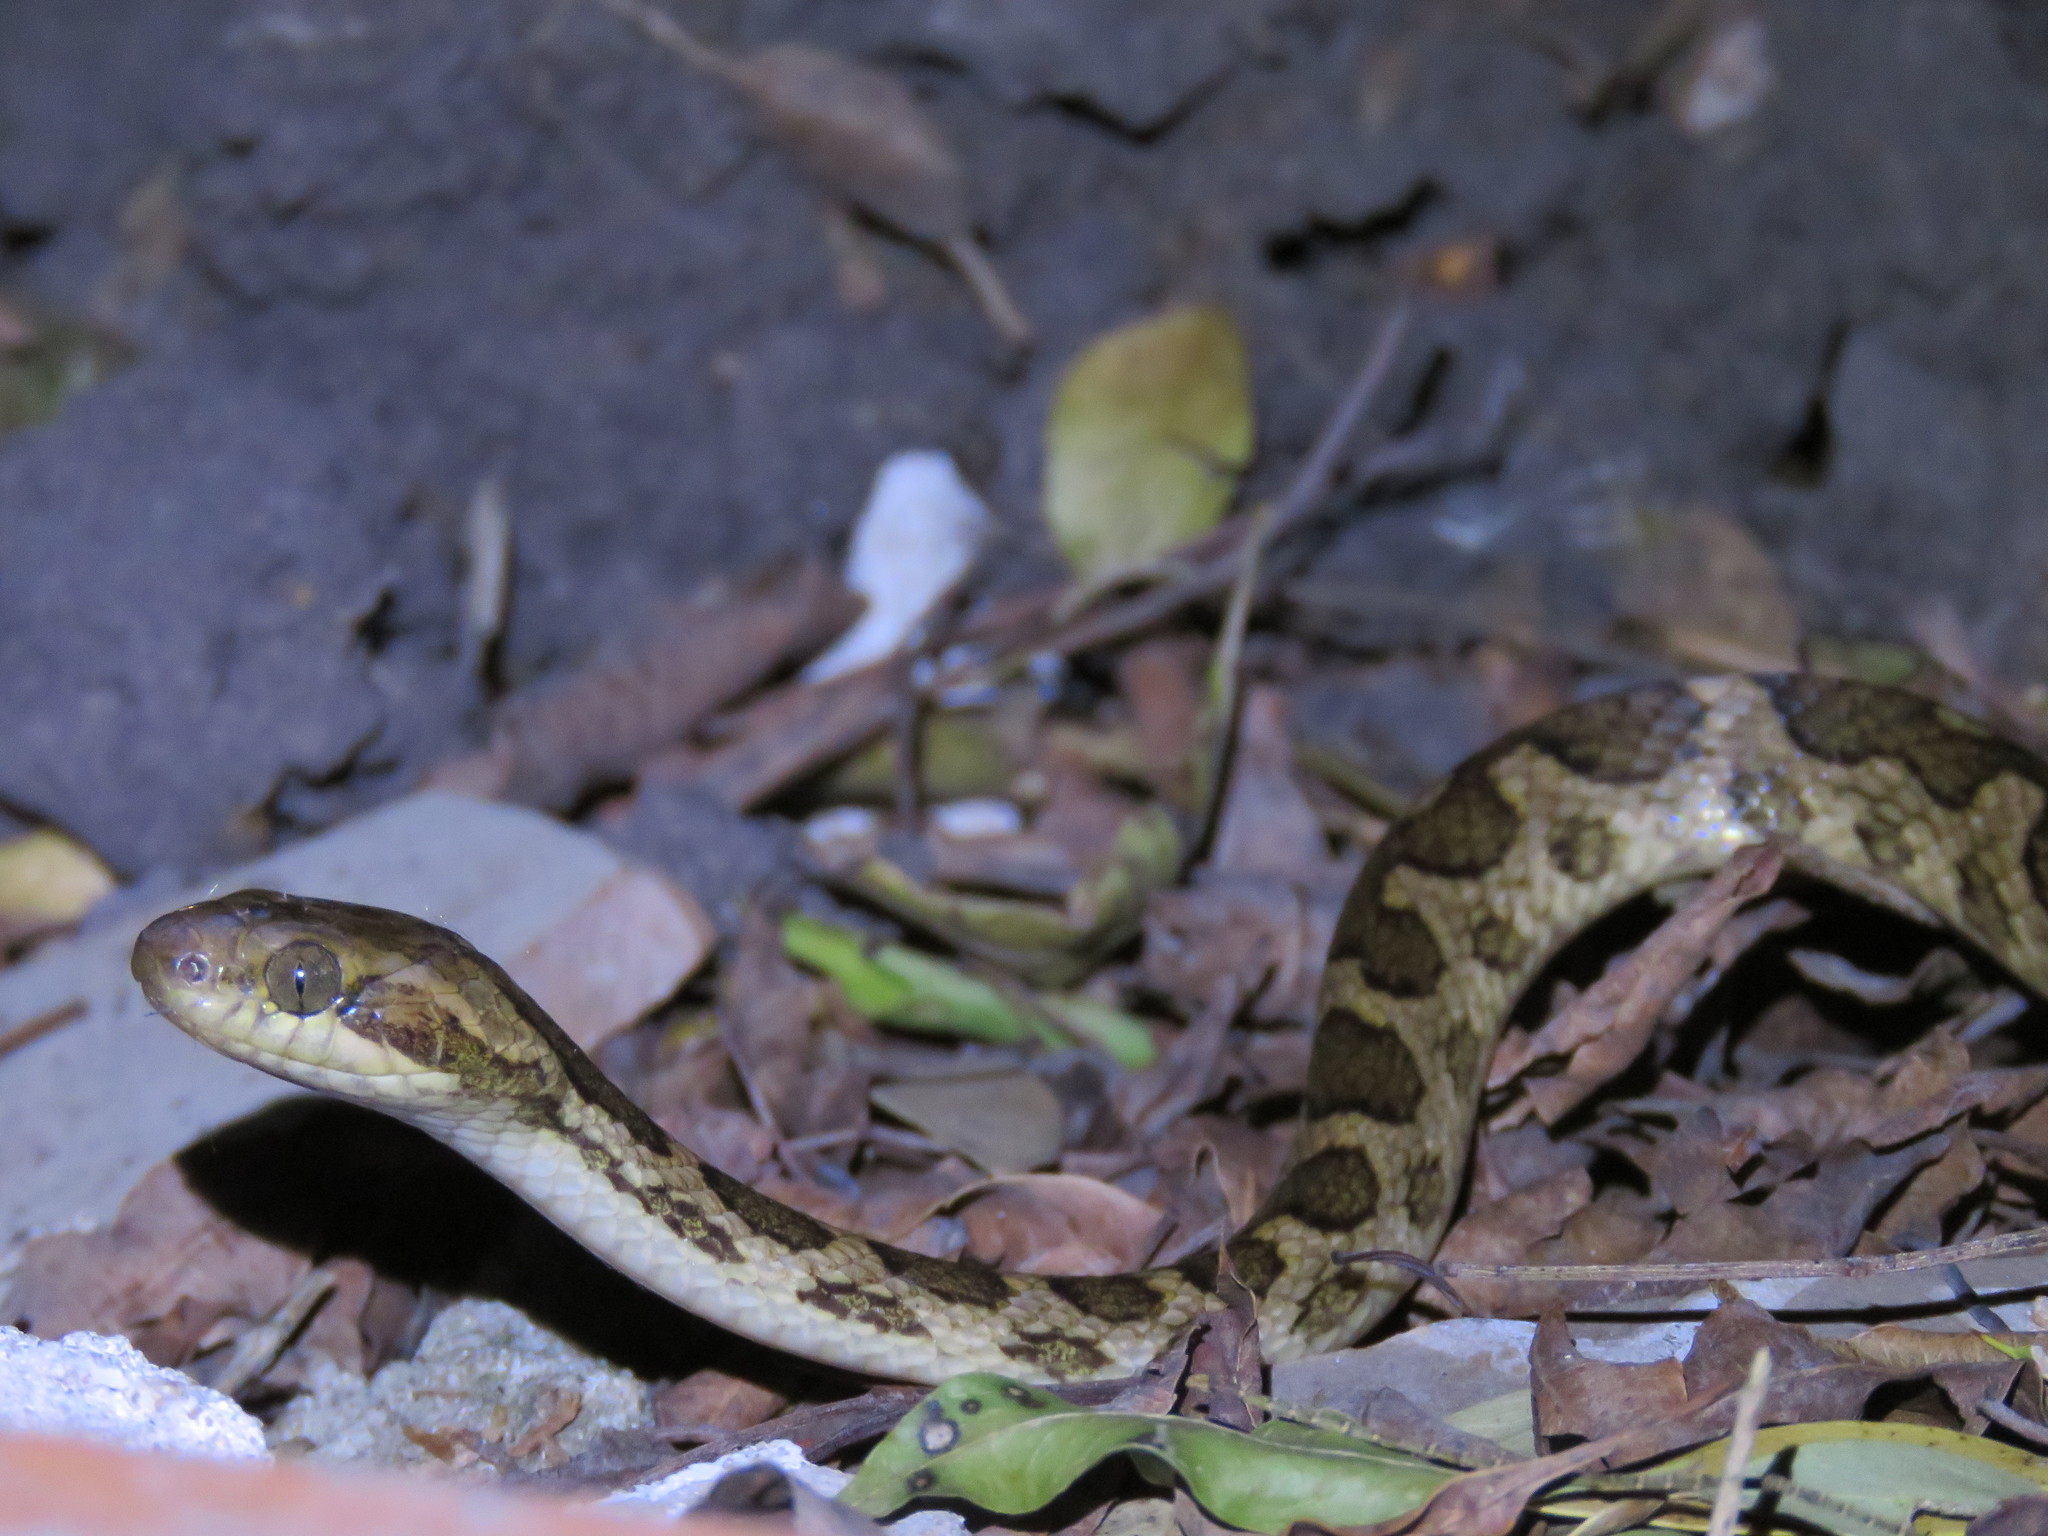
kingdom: Animalia
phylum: Chordata
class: Squamata
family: Colubridae
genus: Leptodeira
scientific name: Leptodeira annulata
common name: Banded cat-eyed snake
